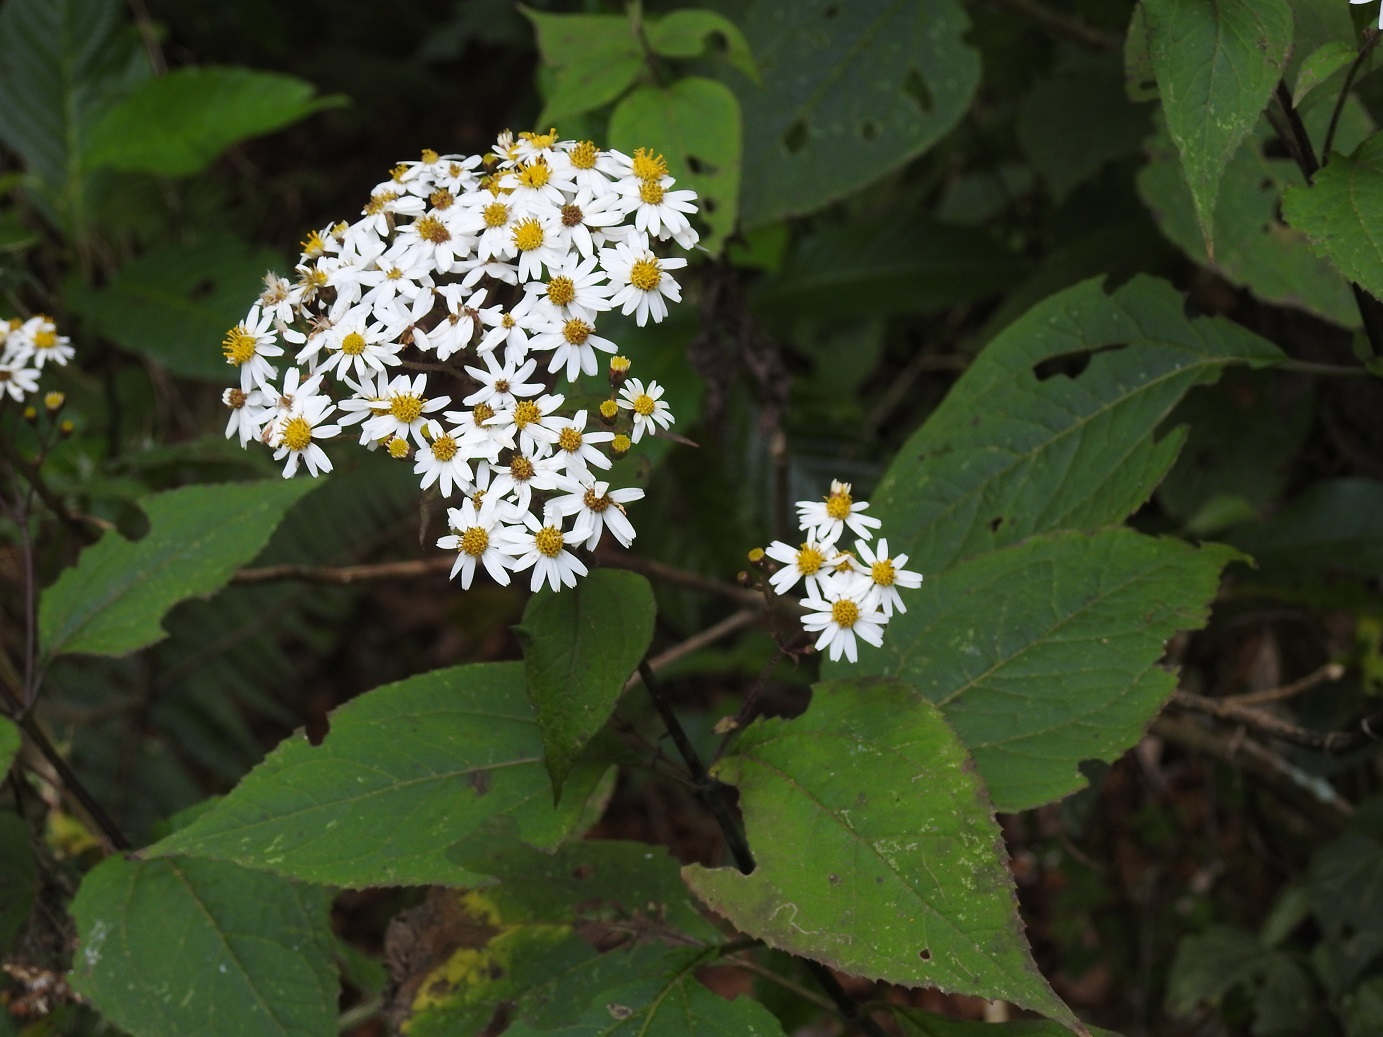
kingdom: Plantae
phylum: Tracheophyta
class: Magnoliopsida
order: Asterales
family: Asteraceae
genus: Alloispermum
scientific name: Alloispermum integrifolium
